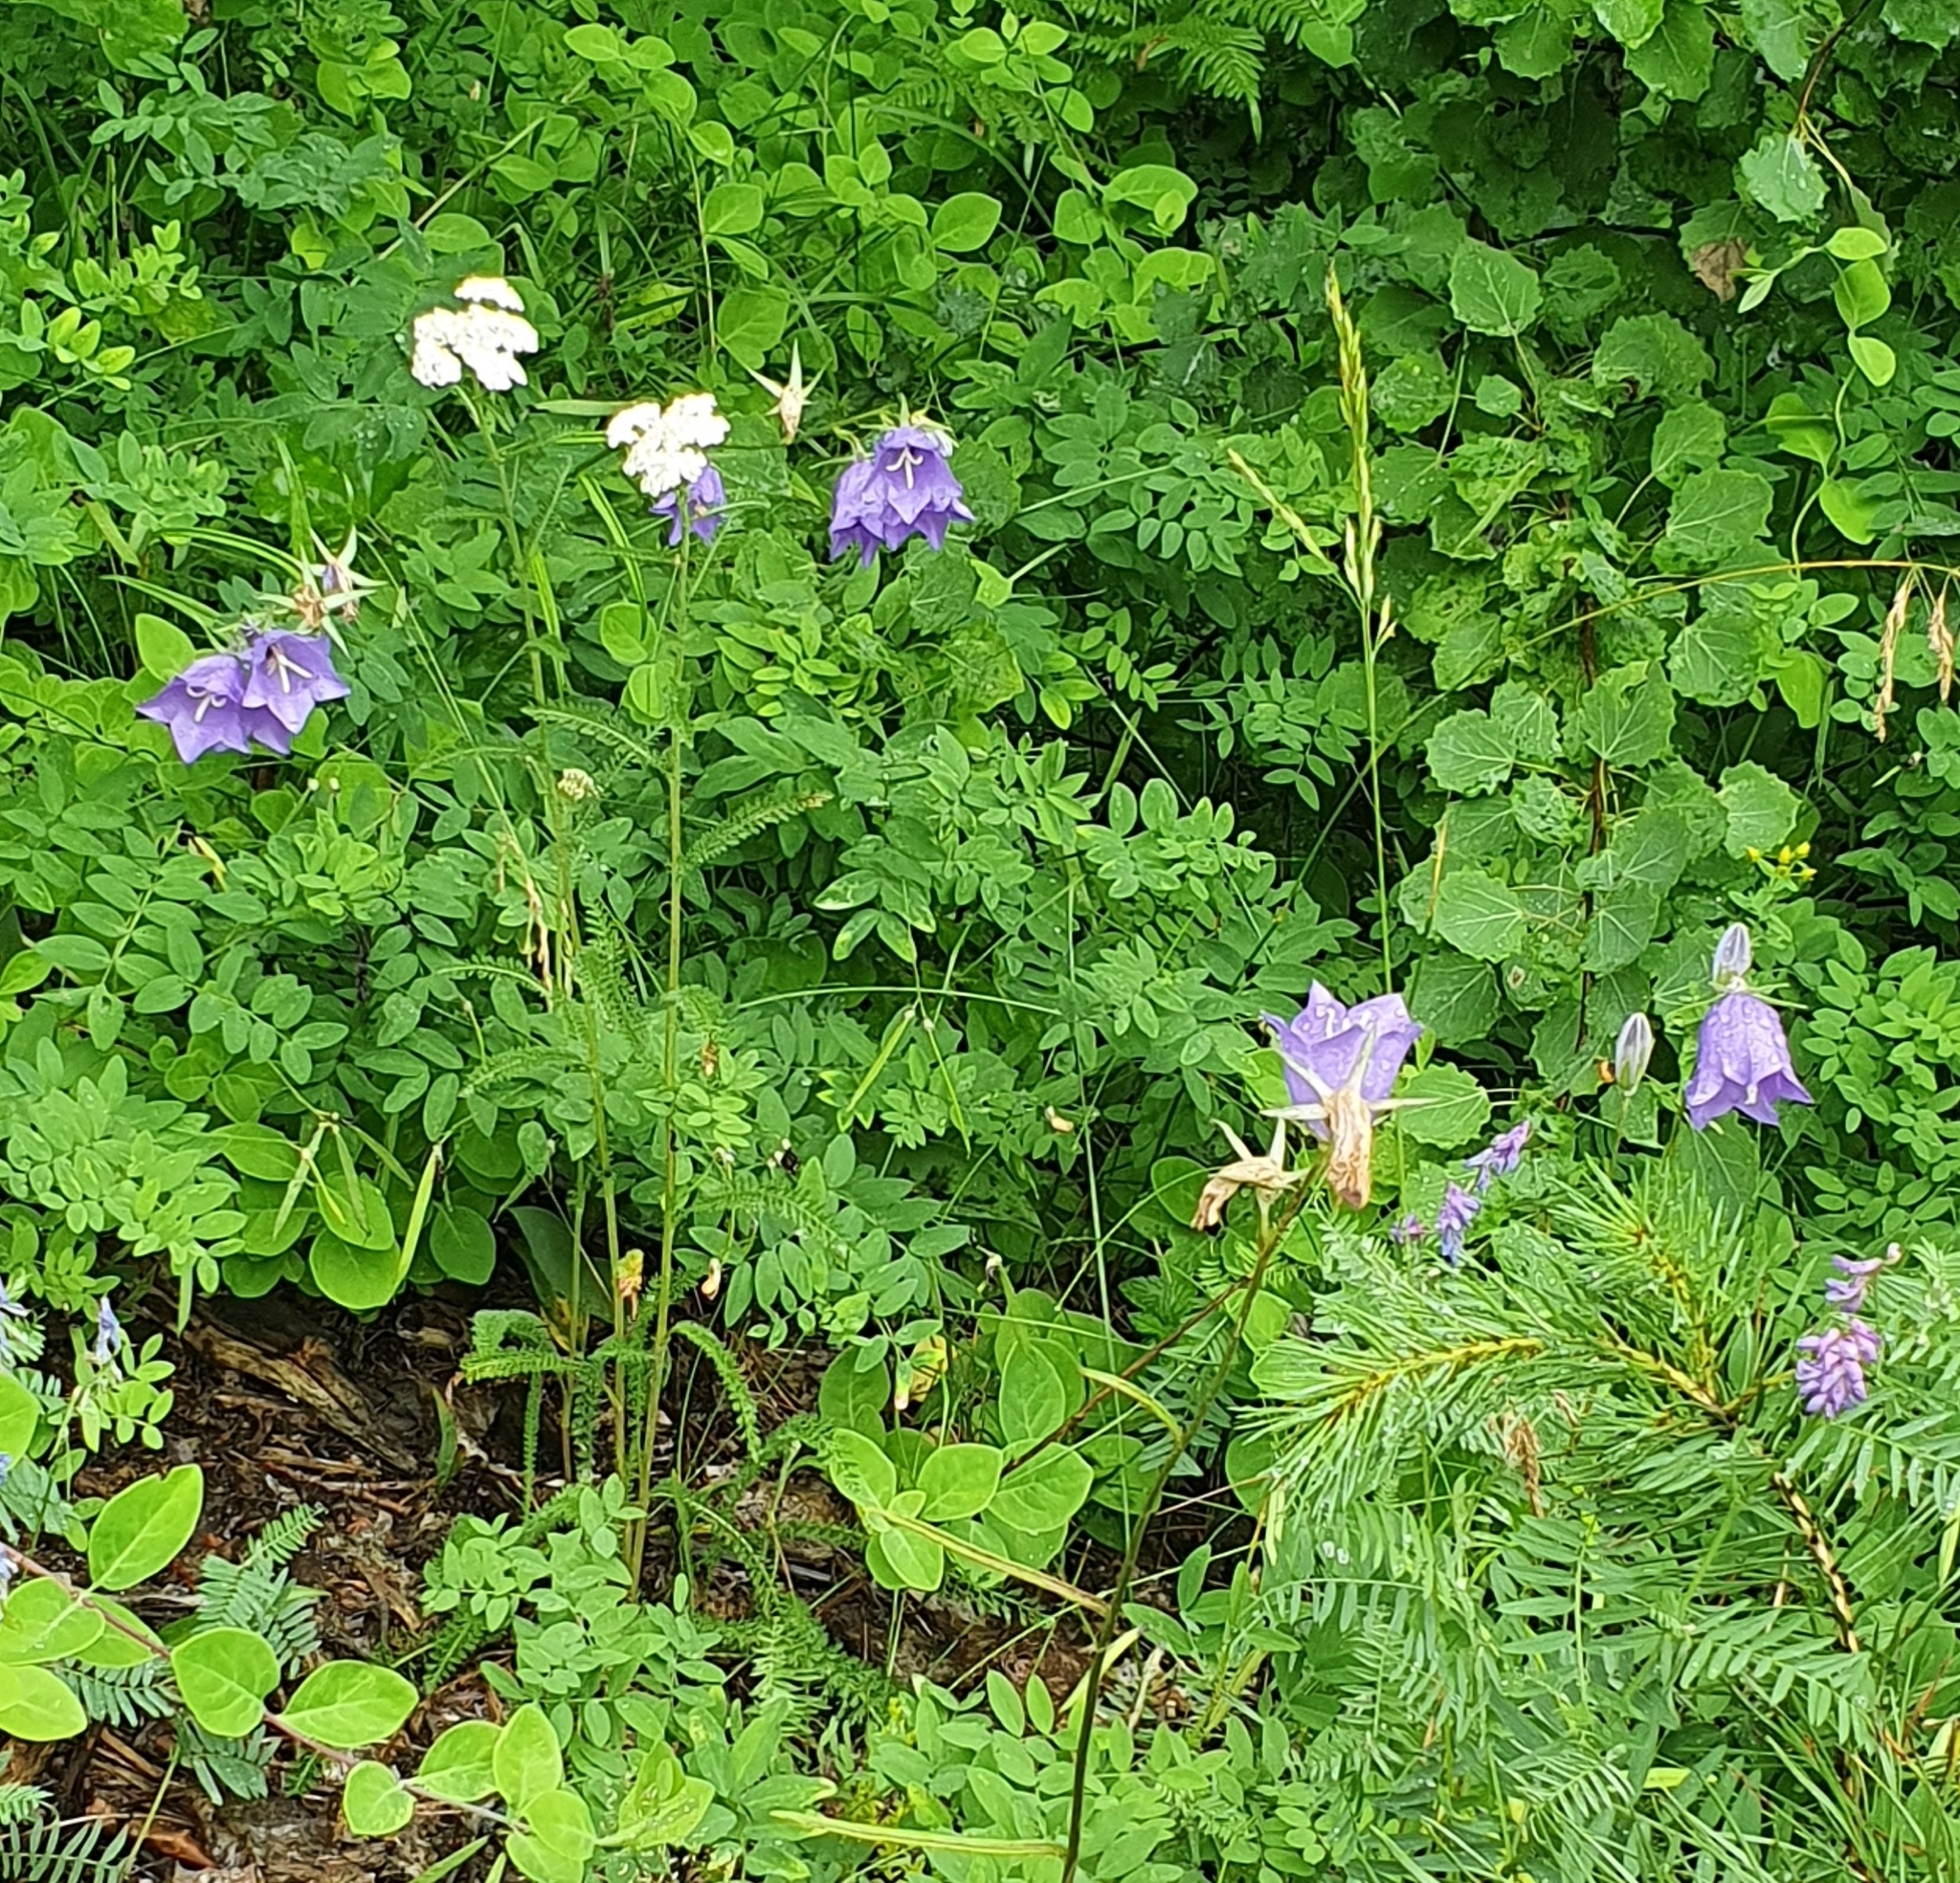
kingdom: Plantae
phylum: Tracheophyta
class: Magnoliopsida
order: Asterales
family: Campanulaceae
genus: Campanula
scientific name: Campanula persicifolia
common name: Peach-leaved bellflower
